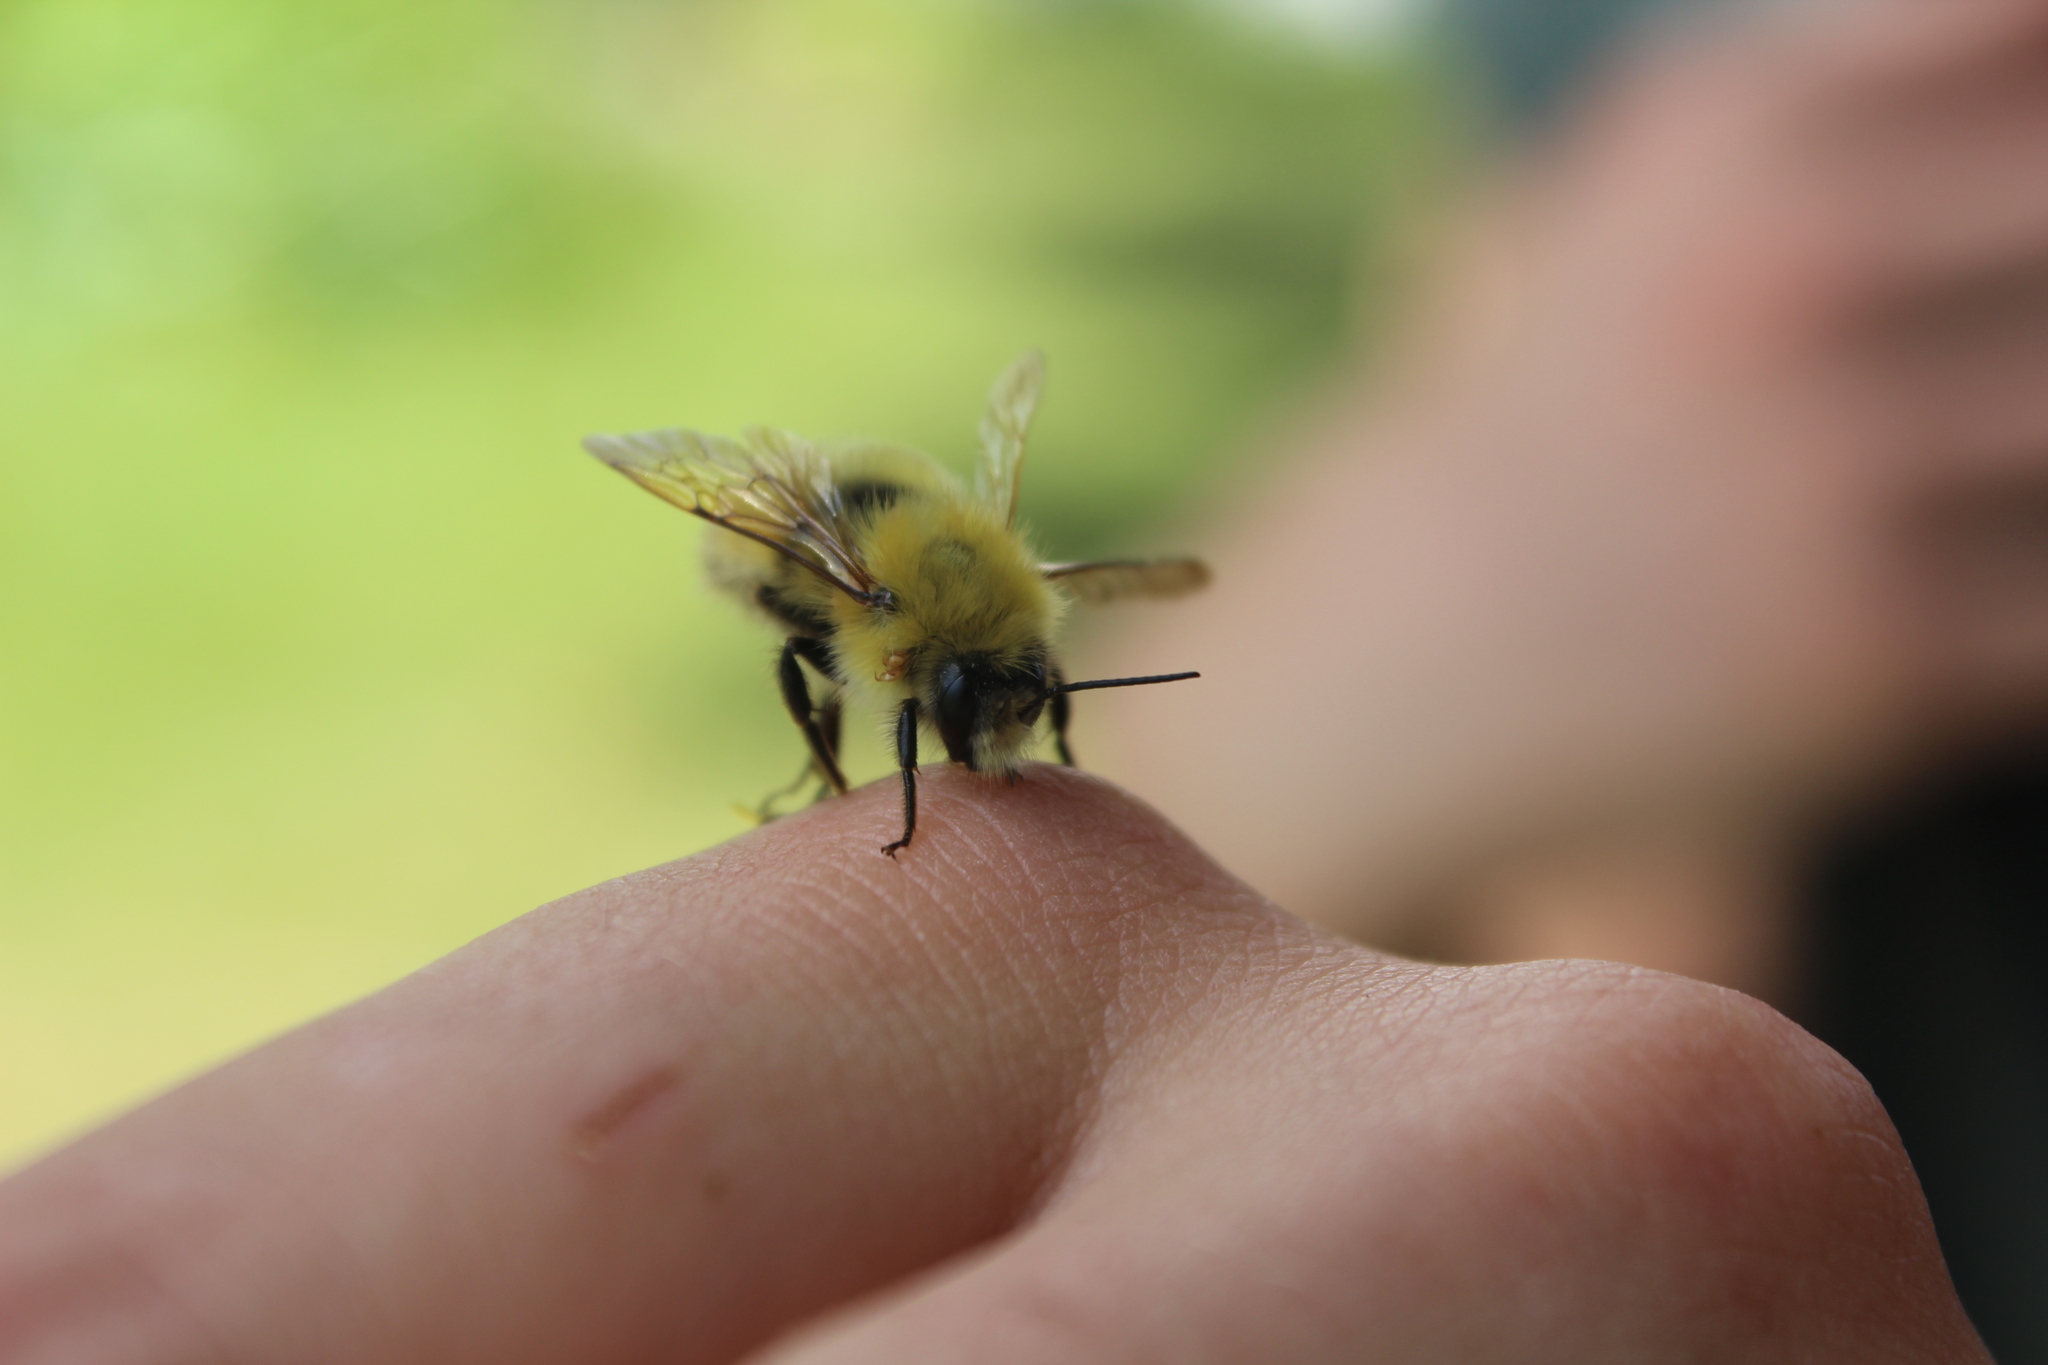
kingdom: Animalia
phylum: Arthropoda
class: Insecta
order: Hymenoptera
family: Apidae
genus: Bombus
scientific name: Bombus perplexus
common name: Confusing bumble bee
